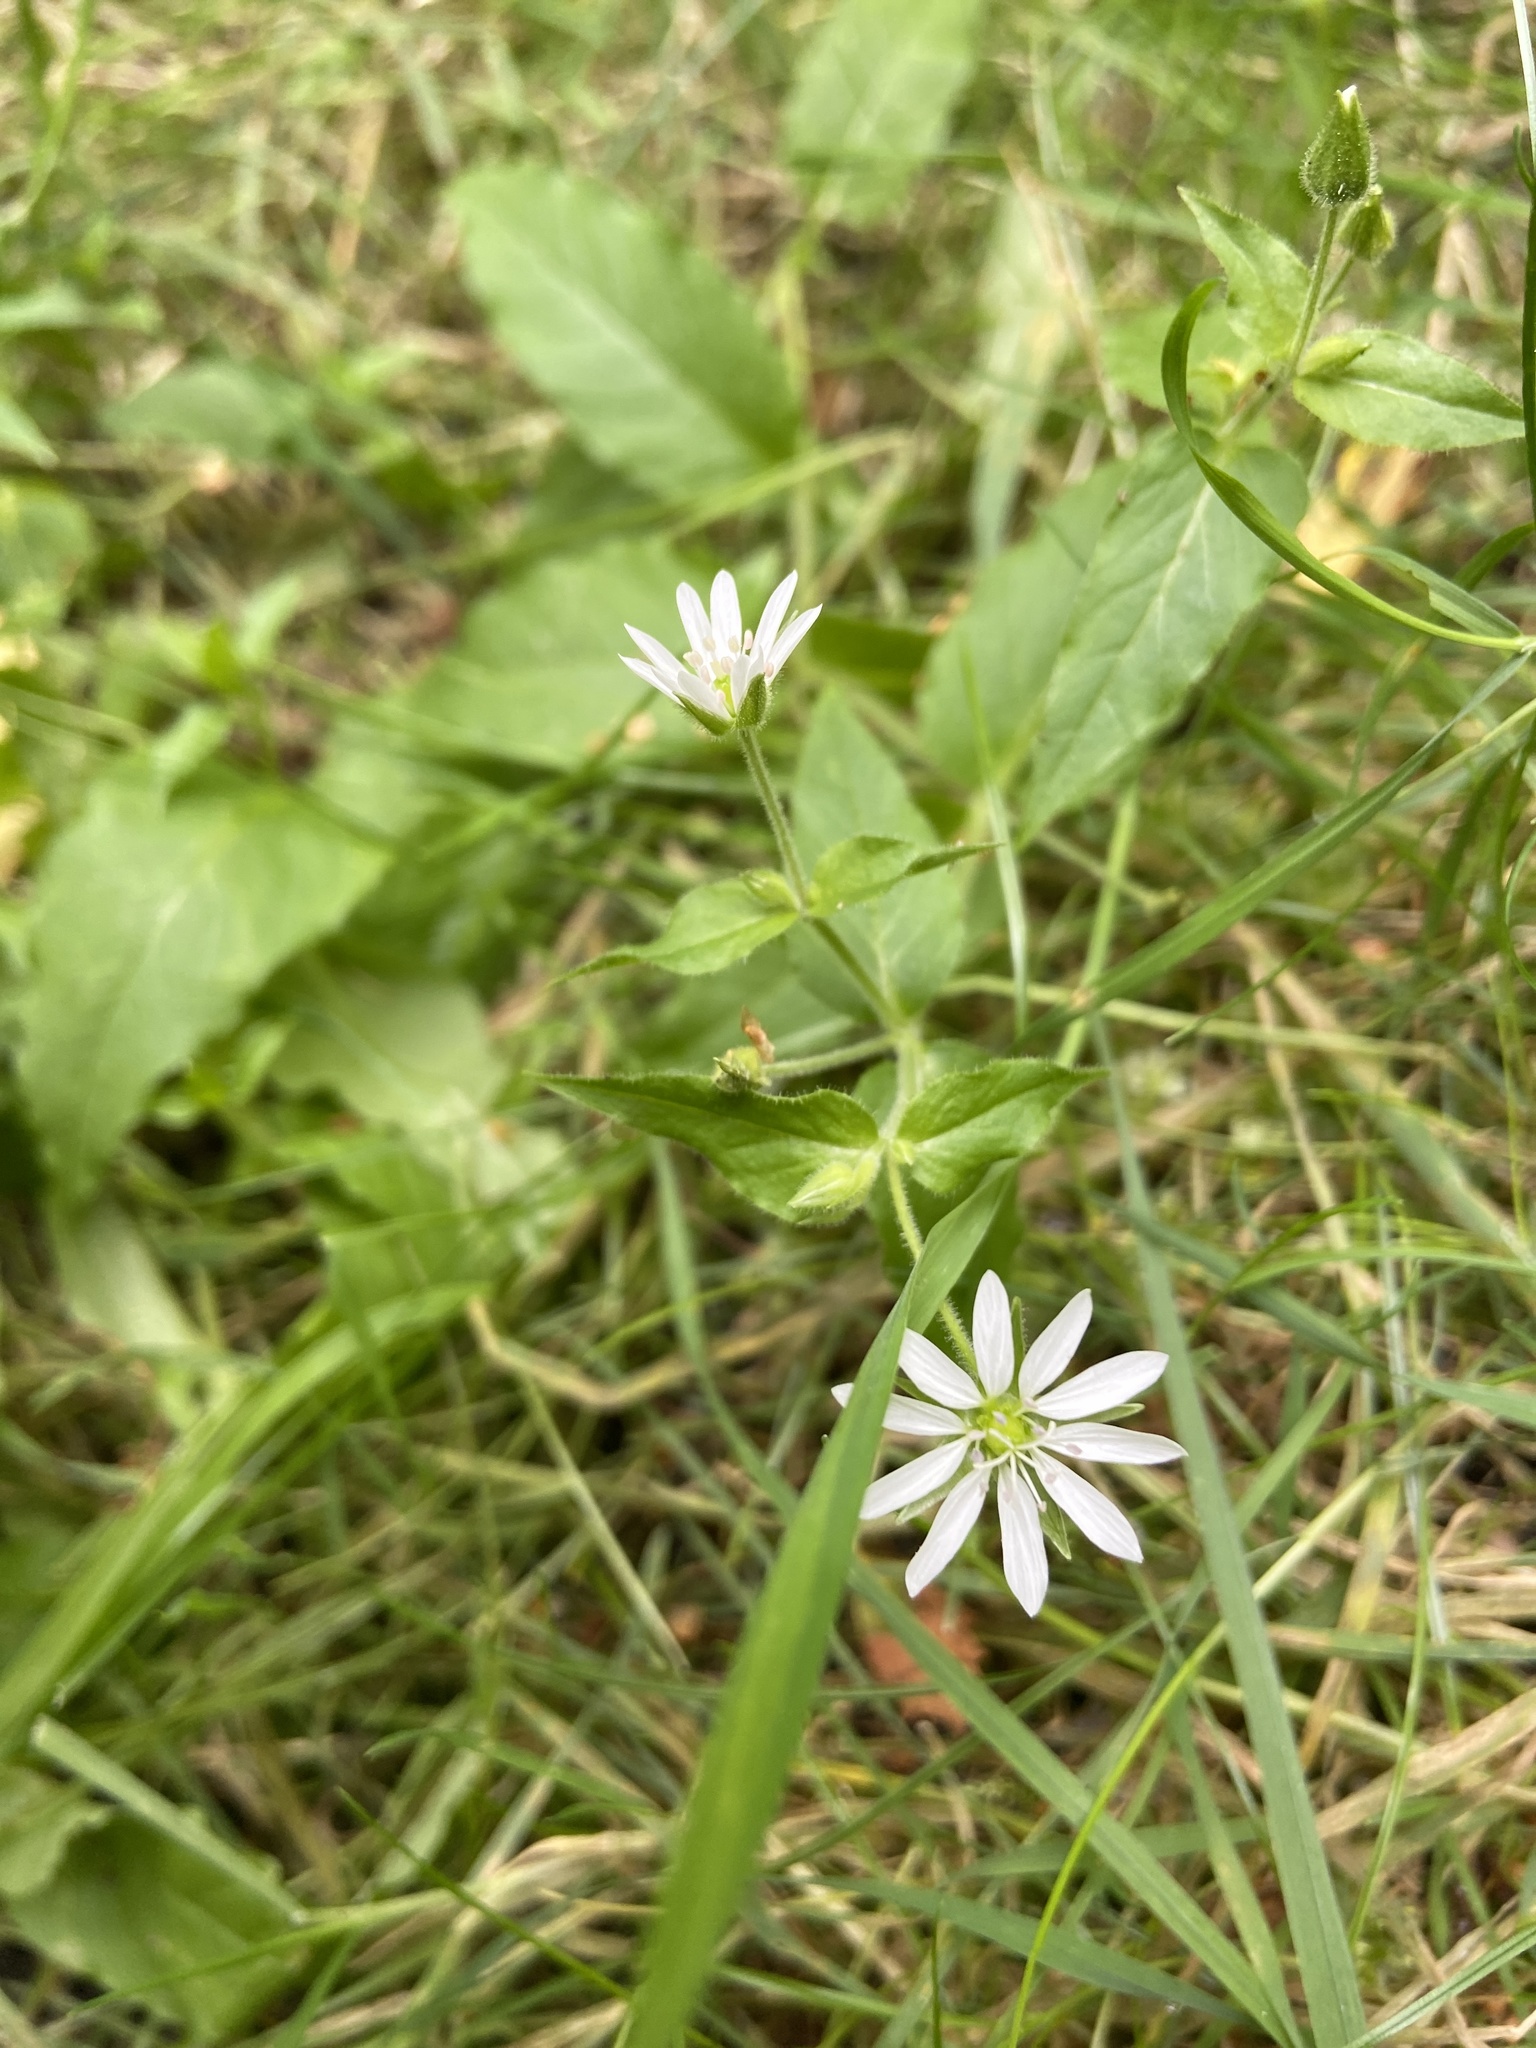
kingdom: Plantae
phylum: Tracheophyta
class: Magnoliopsida
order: Caryophyllales
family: Caryophyllaceae
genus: Stellaria
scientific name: Stellaria aquatica
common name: Water chickweed
